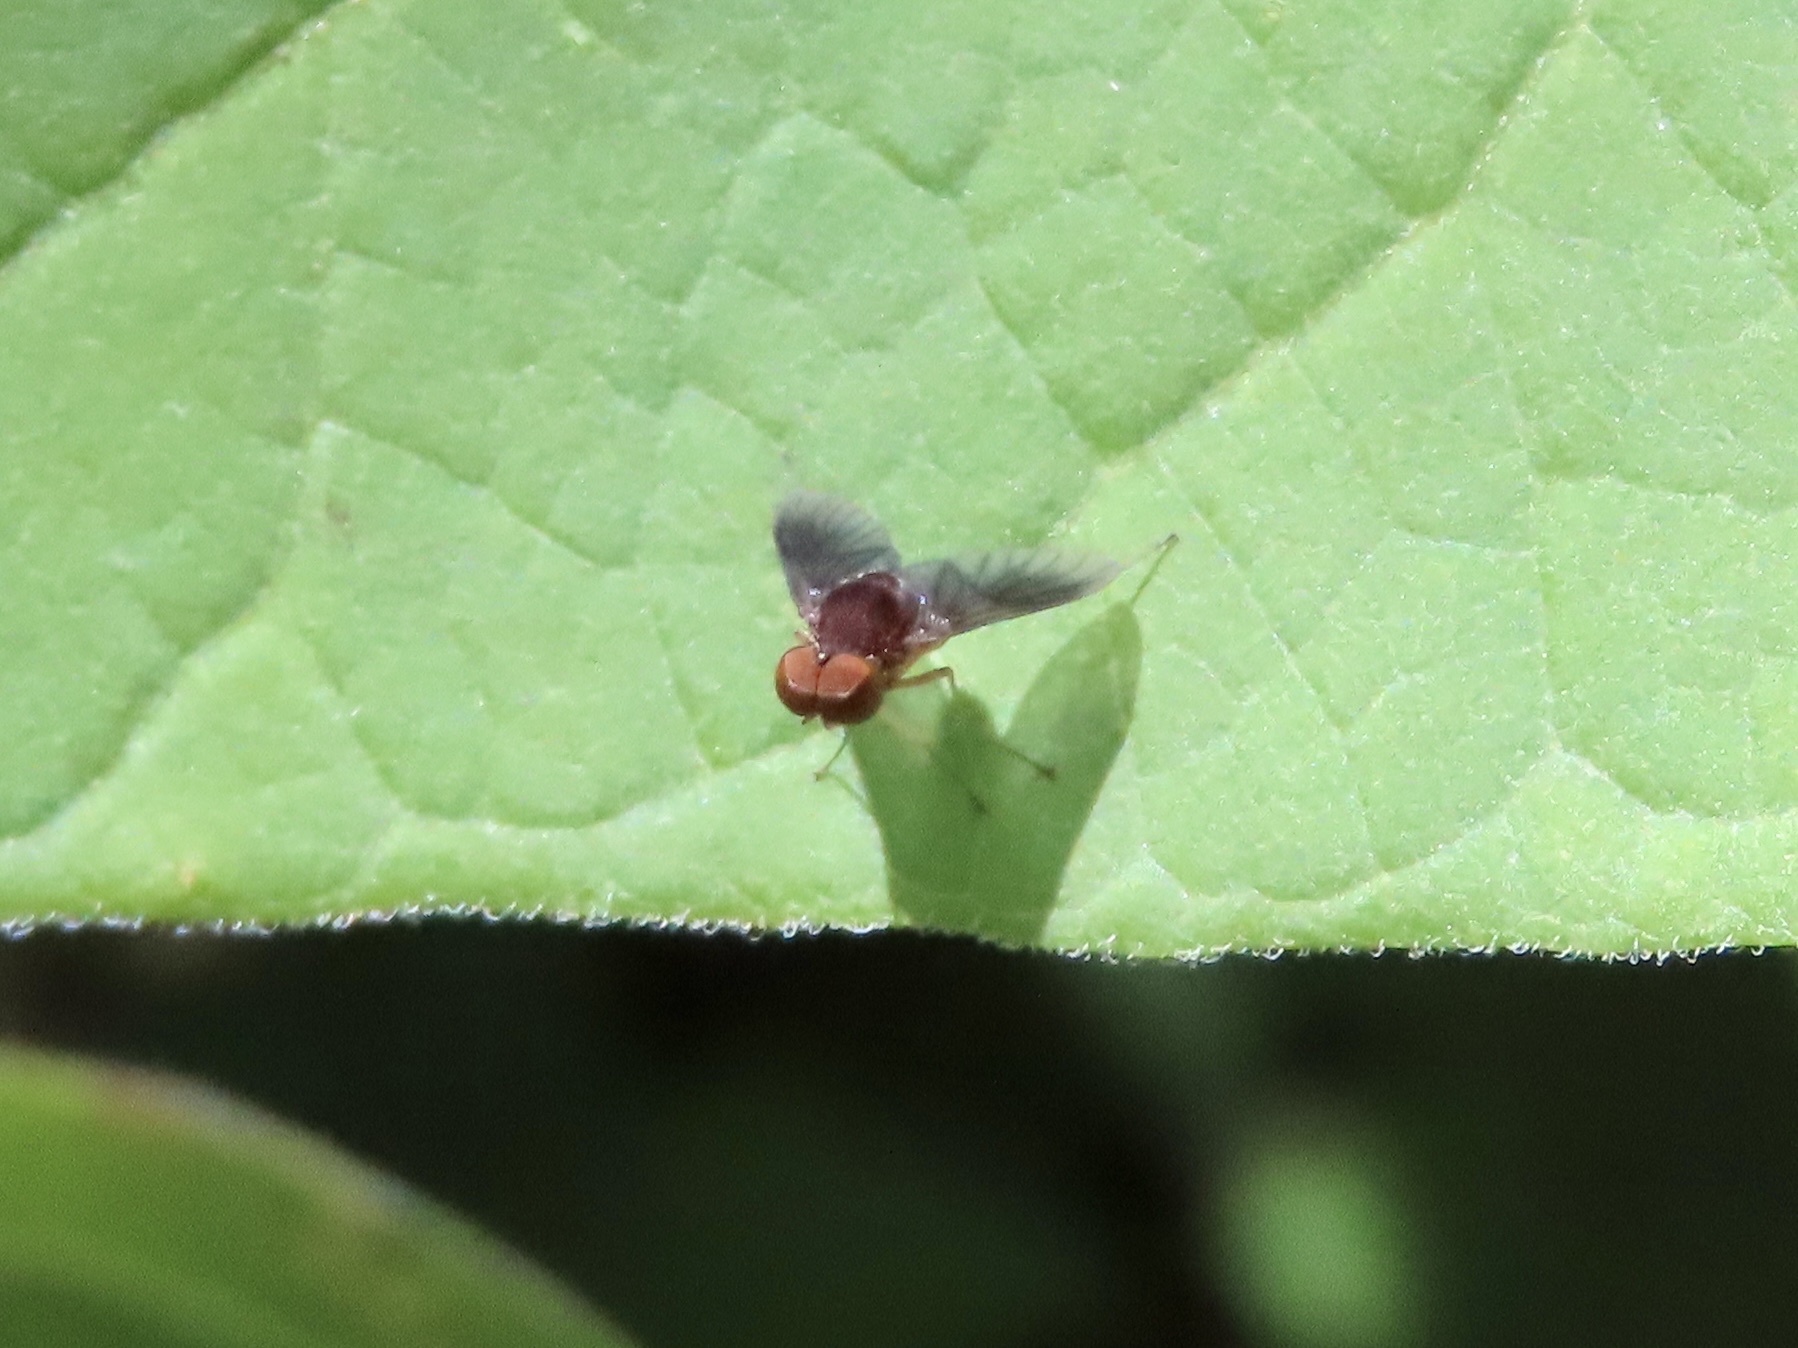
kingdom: Animalia
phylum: Arthropoda
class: Insecta
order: Diptera
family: Rhagionidae
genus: Chrysopilus
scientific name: Chrysopilus quadratus
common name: Quadrate snipe fly
